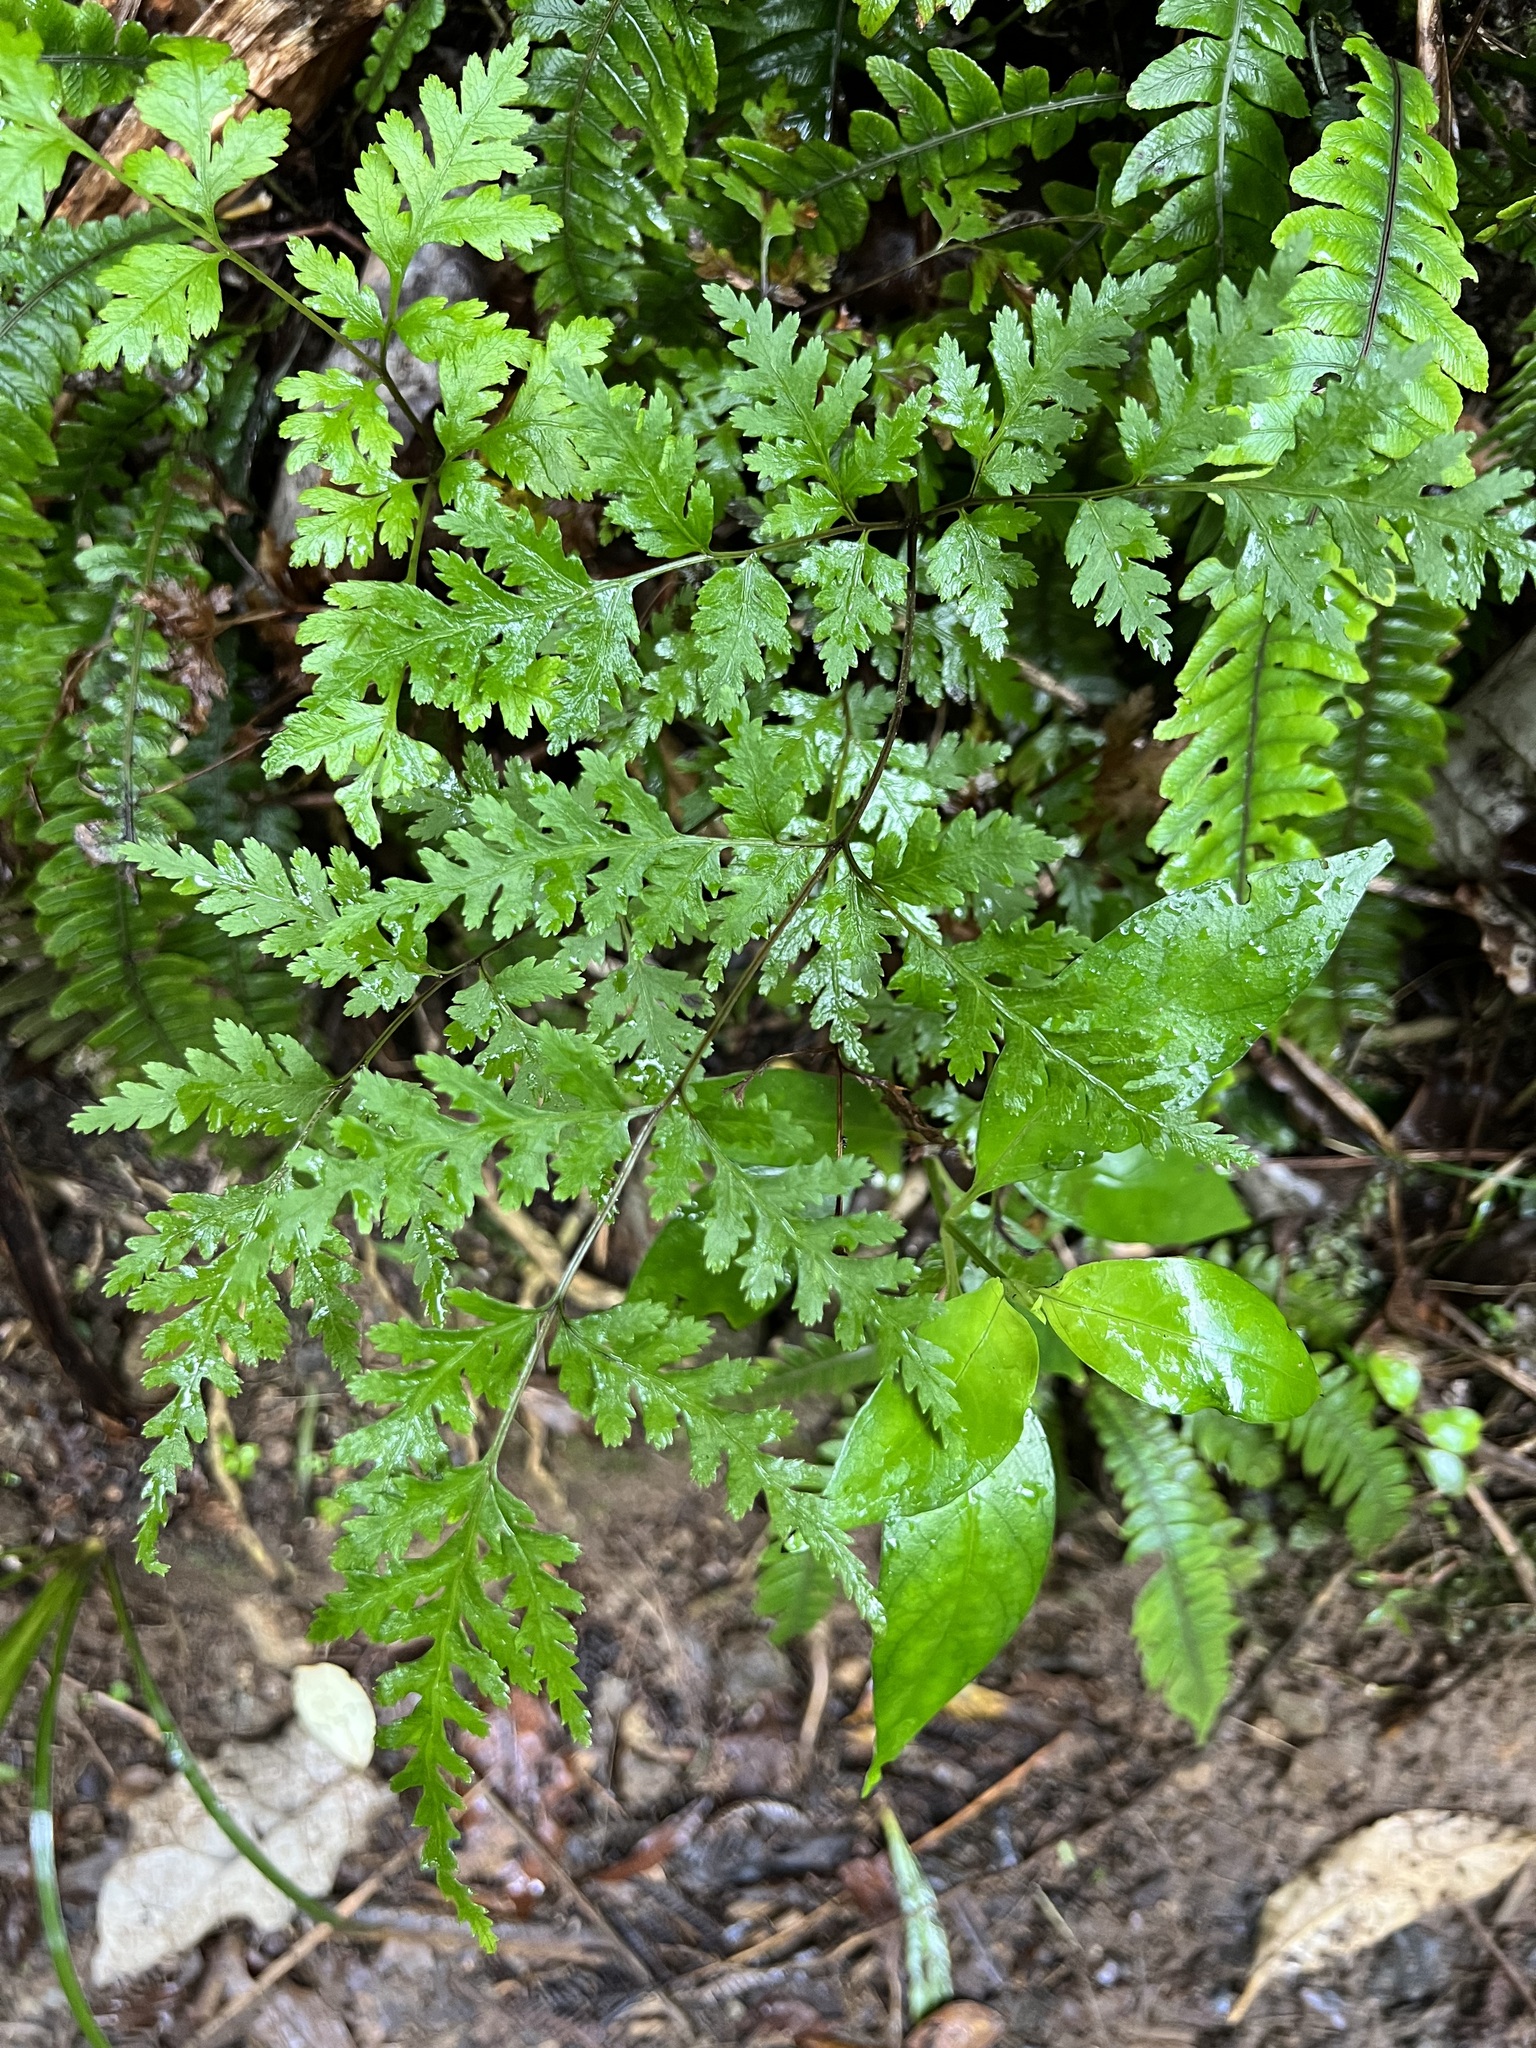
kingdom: Plantae
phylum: Tracheophyta
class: Polypodiopsida
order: Polypodiales
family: Pteridaceae
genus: Pteris
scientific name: Pteris macilenta
